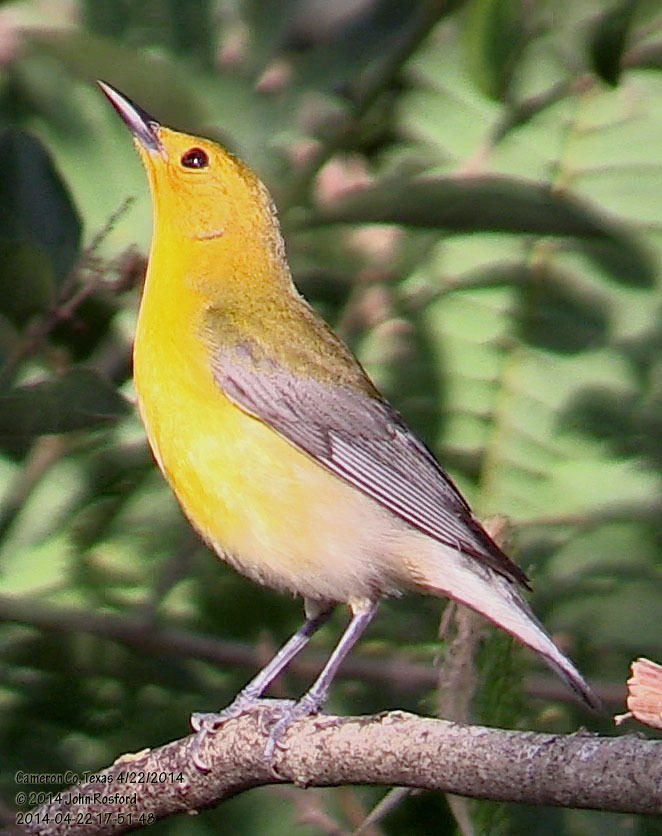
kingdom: Animalia
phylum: Chordata
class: Aves
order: Passeriformes
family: Parulidae
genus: Protonotaria
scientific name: Protonotaria citrea
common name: Prothonotary warbler
